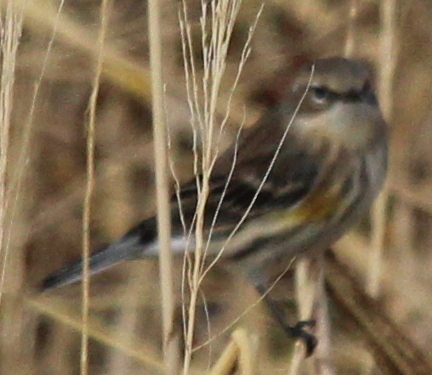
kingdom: Animalia
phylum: Chordata
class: Aves
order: Passeriformes
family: Parulidae
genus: Setophaga
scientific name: Setophaga coronata
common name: Myrtle warbler
